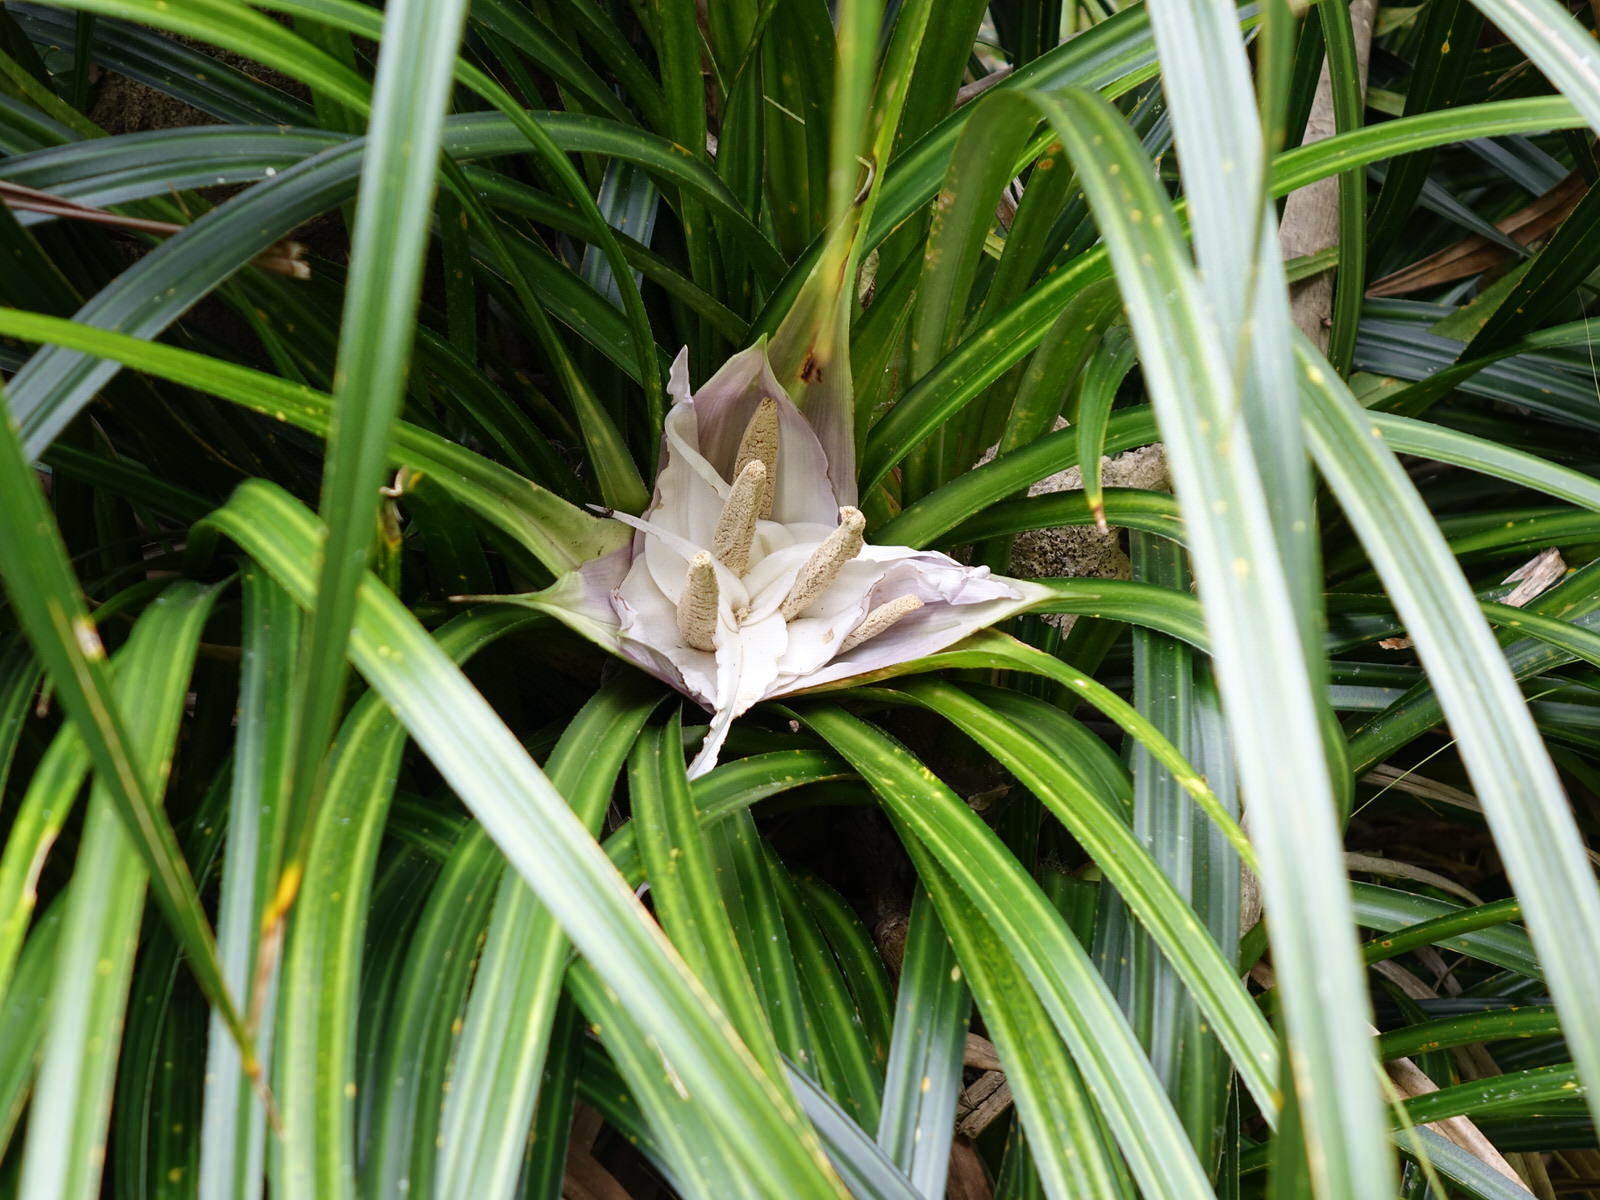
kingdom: Plantae
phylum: Tracheophyta
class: Liliopsida
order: Pandanales
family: Pandanaceae
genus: Freycinetia
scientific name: Freycinetia banksii
